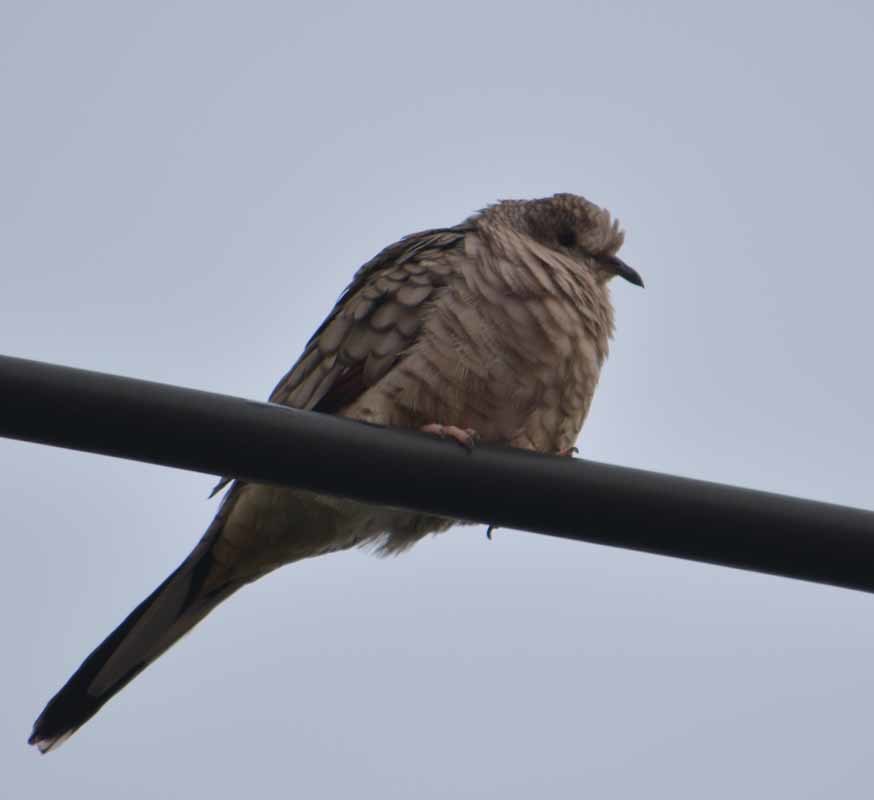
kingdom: Animalia
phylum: Chordata
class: Aves
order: Columbiformes
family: Columbidae
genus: Columbina
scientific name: Columbina inca
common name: Inca dove
